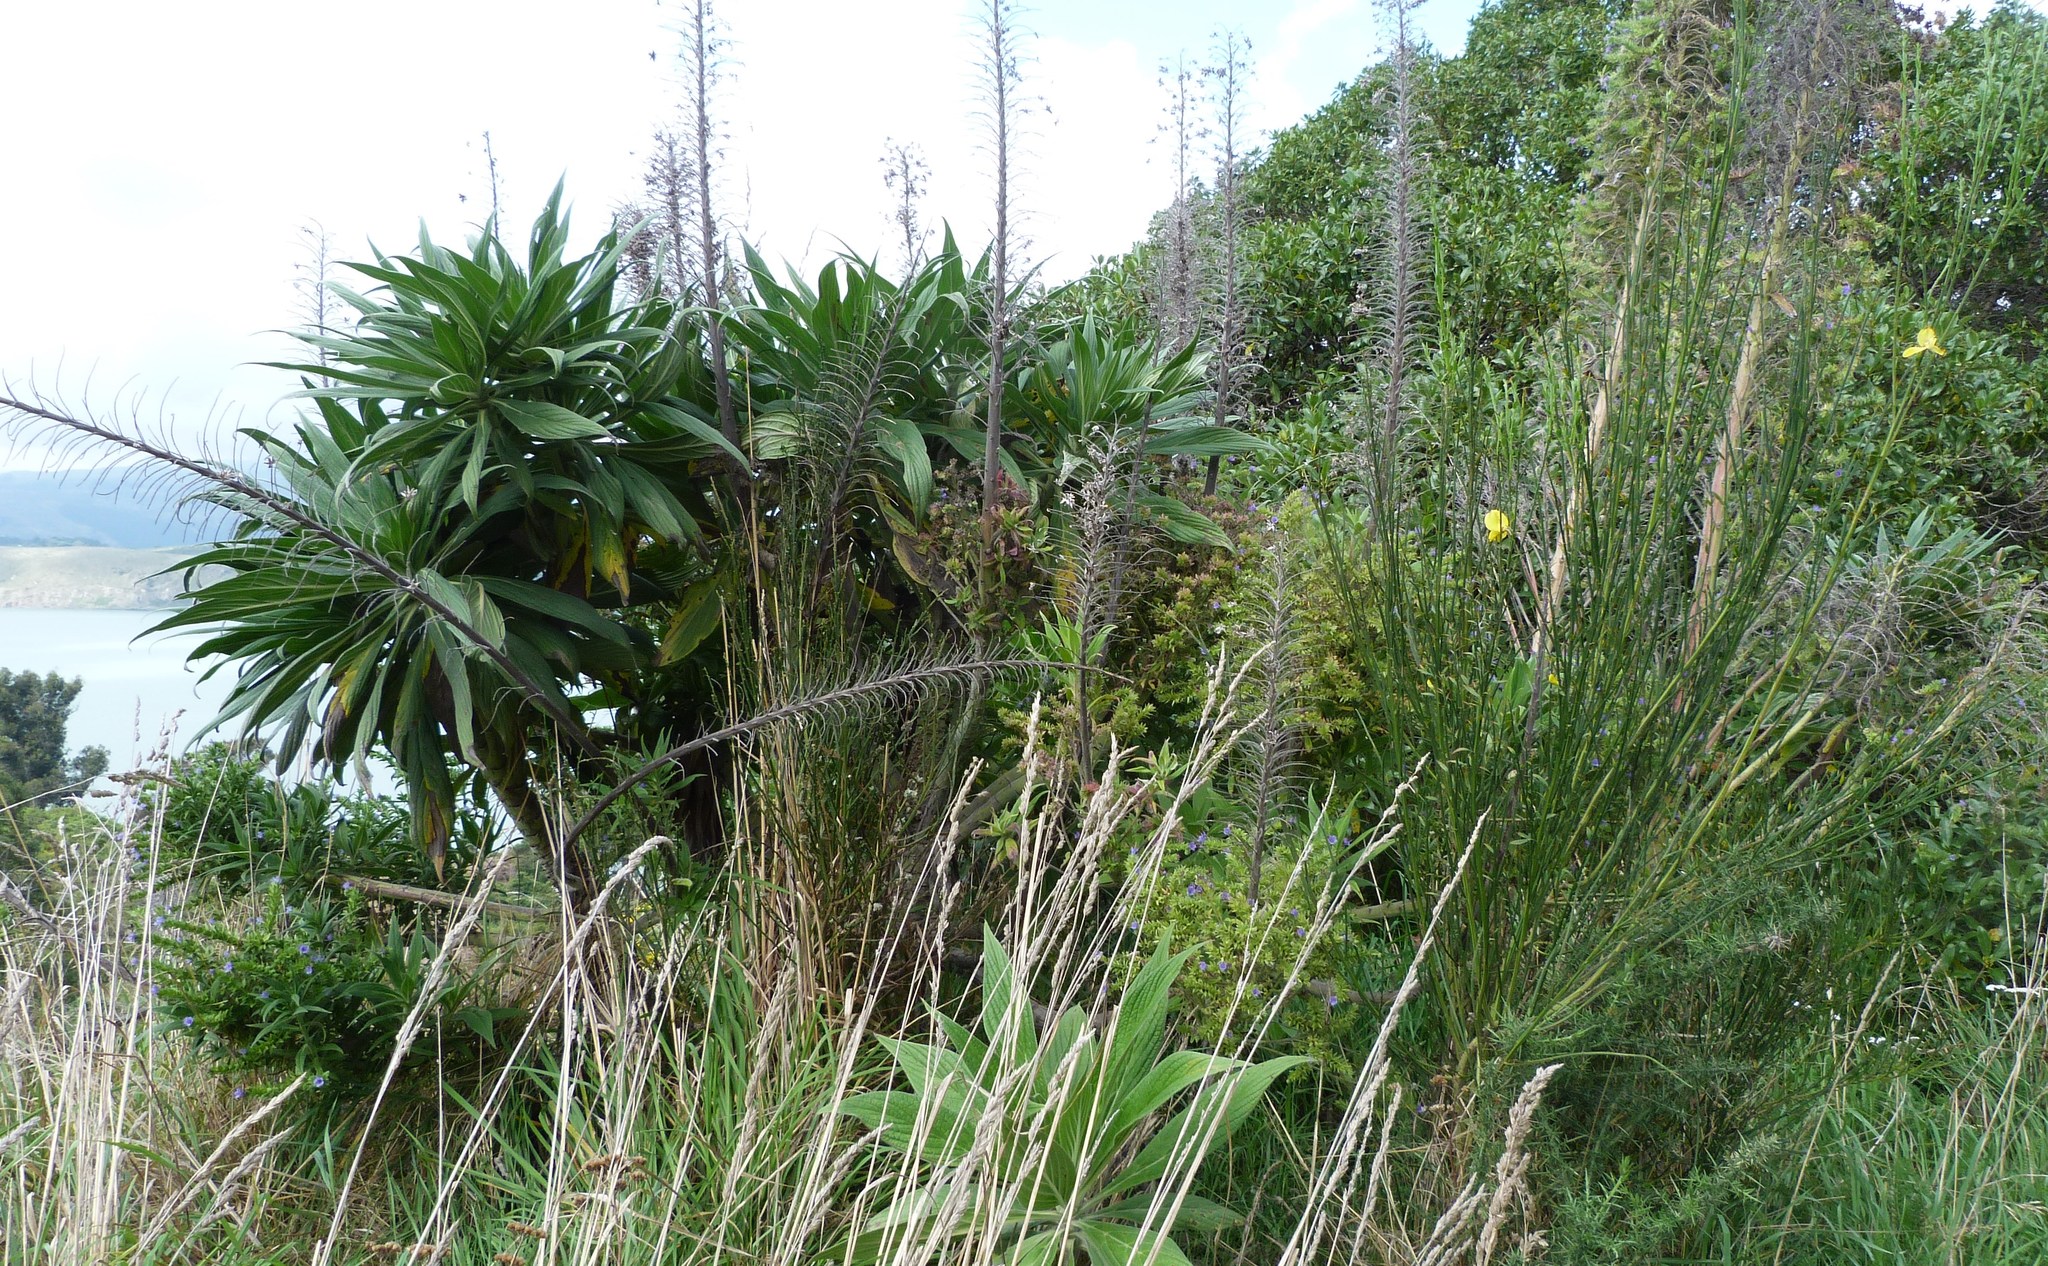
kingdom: Plantae
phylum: Tracheophyta
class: Magnoliopsida
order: Boraginales
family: Boraginaceae
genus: Echium
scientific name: Echium candicans
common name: Pride of madeira
